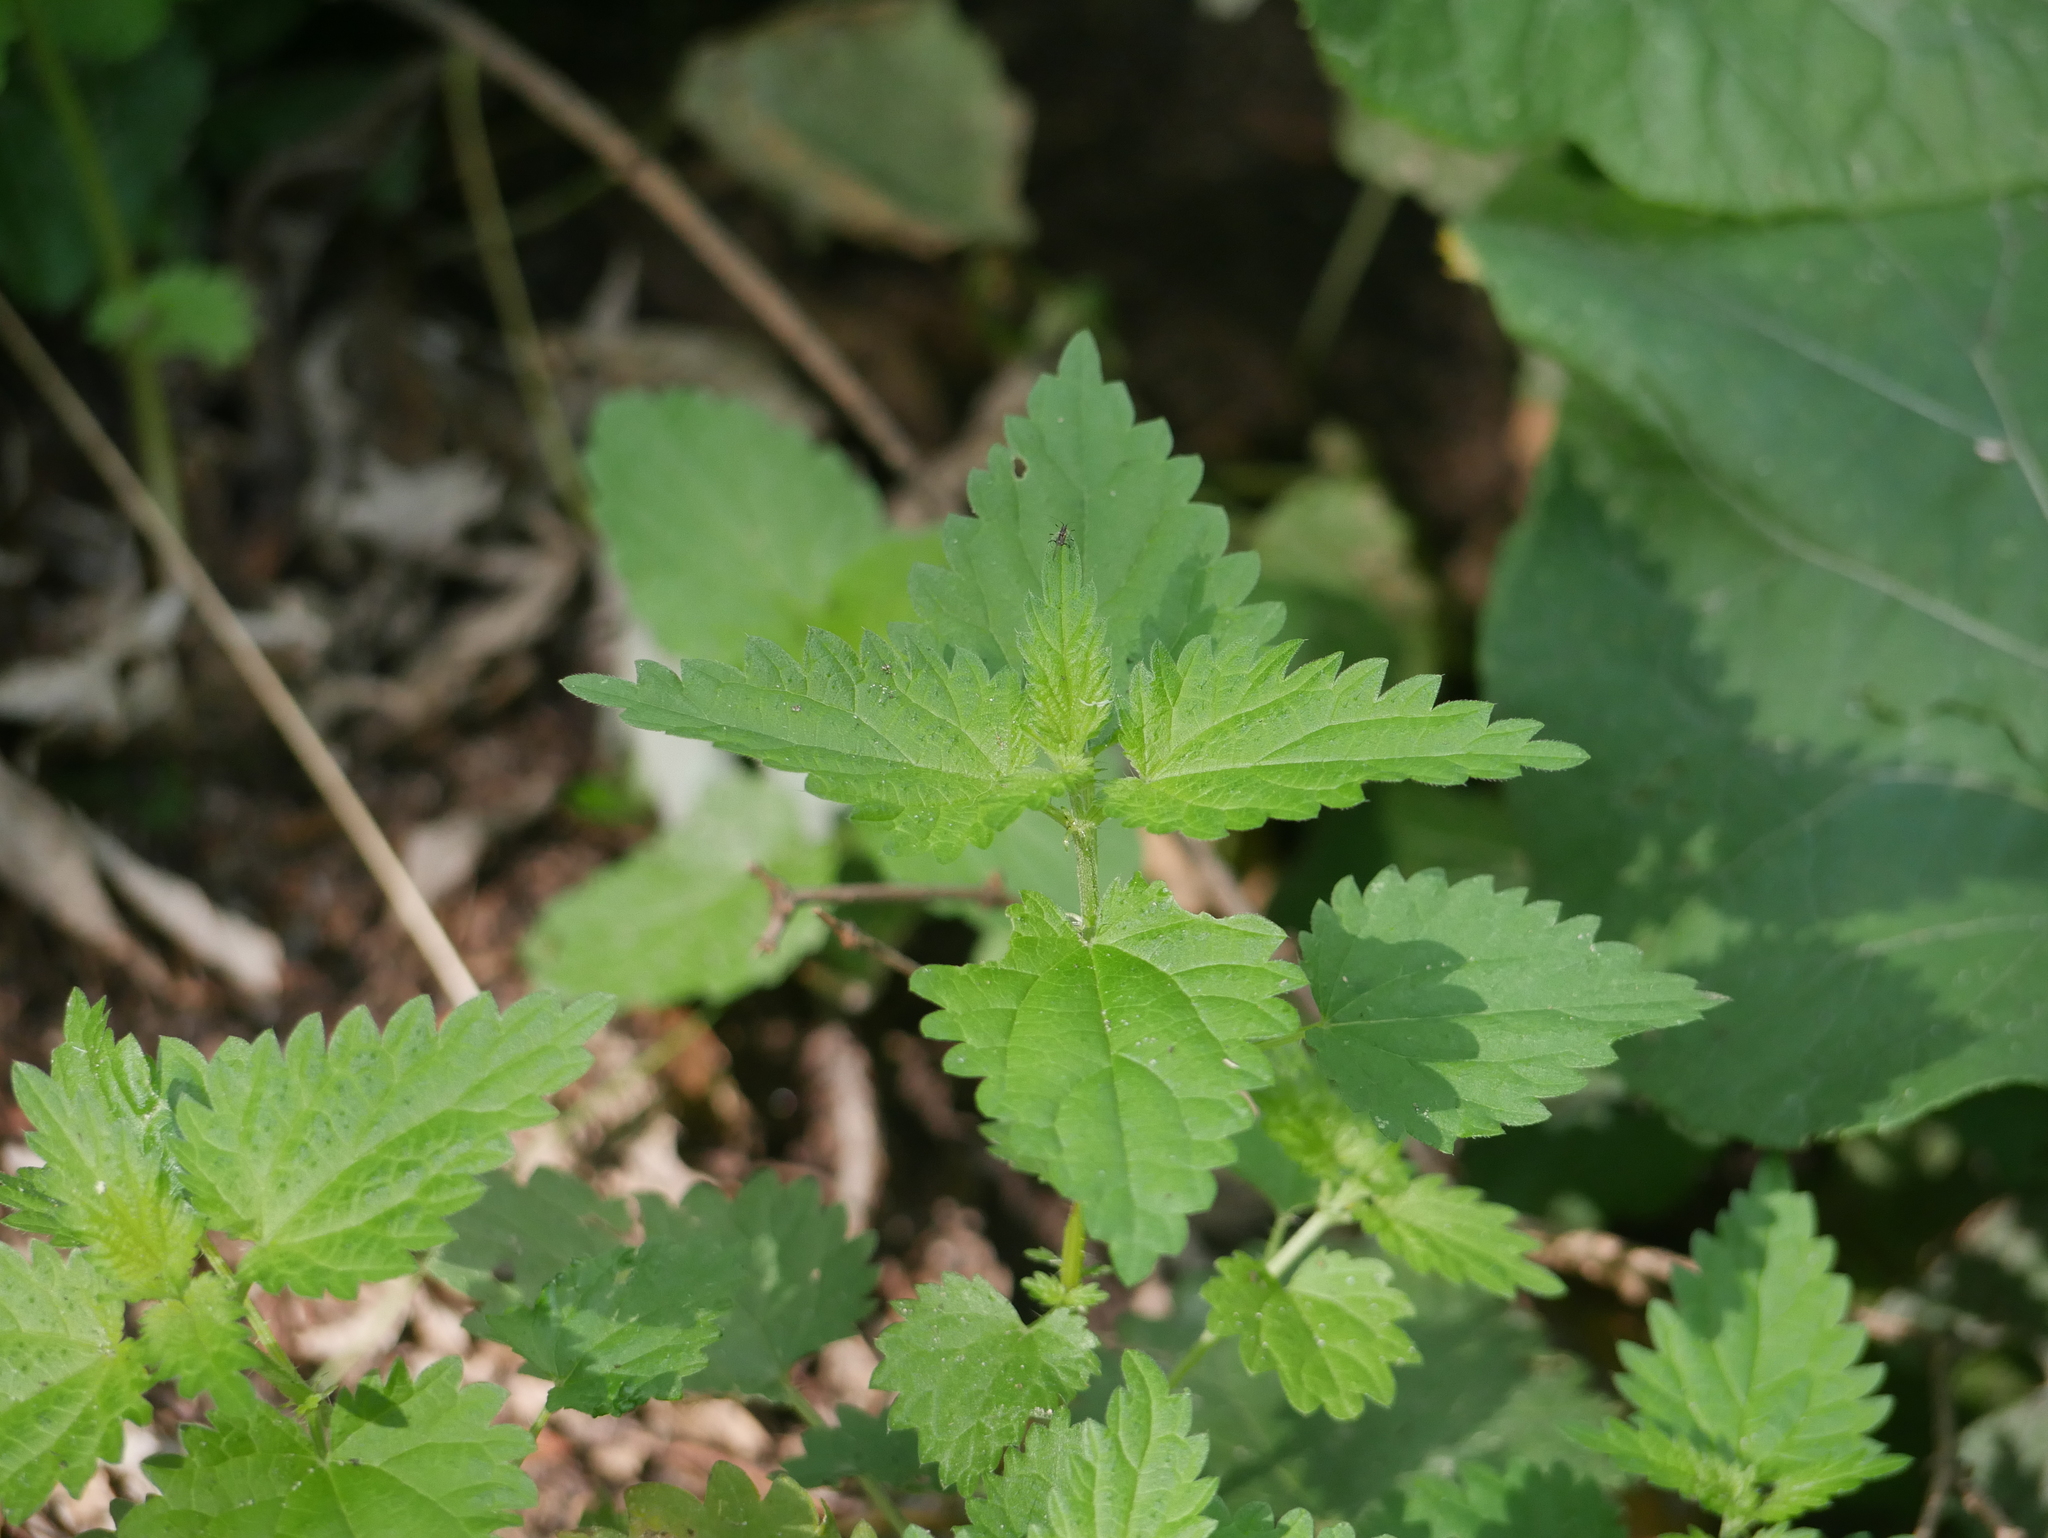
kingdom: Plantae
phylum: Tracheophyta
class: Magnoliopsida
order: Rosales
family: Urticaceae
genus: Urtica
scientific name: Urtica dioica
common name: Common nettle
